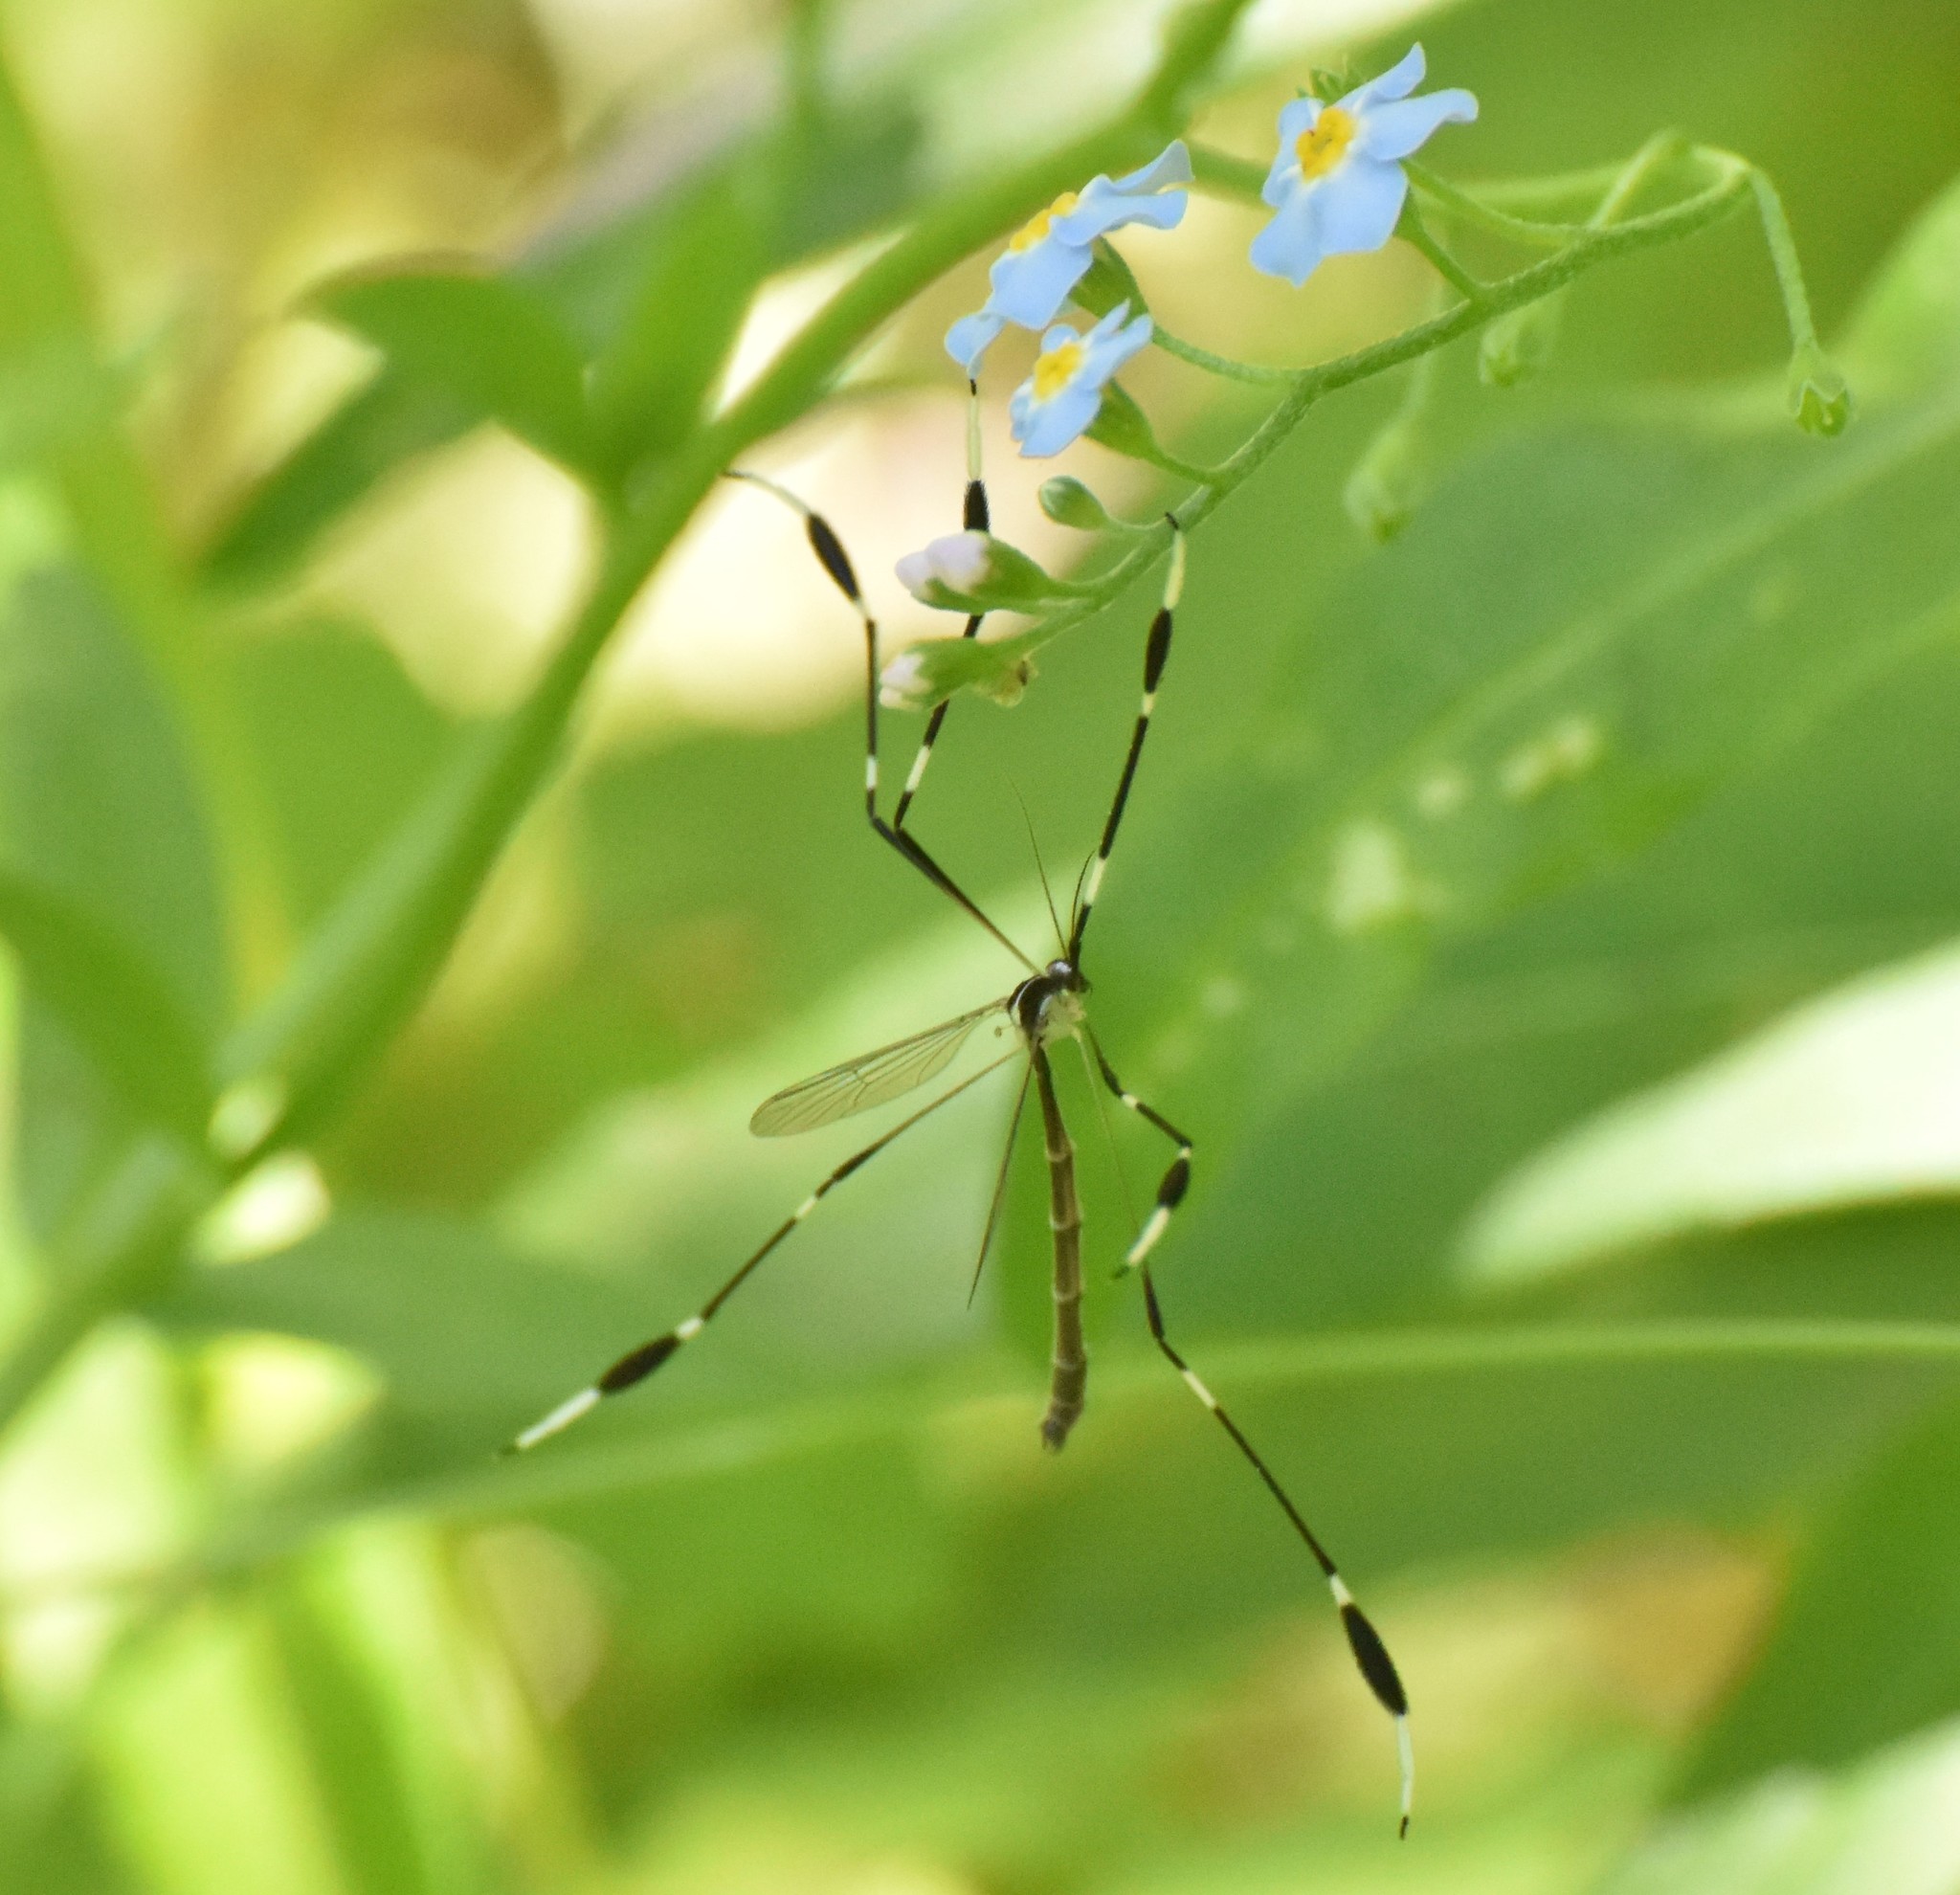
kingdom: Animalia
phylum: Arthropoda
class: Insecta
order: Diptera
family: Ptychopteridae
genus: Bittacomorpha
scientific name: Bittacomorpha clavipes
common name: Eastern phantom crane fly
